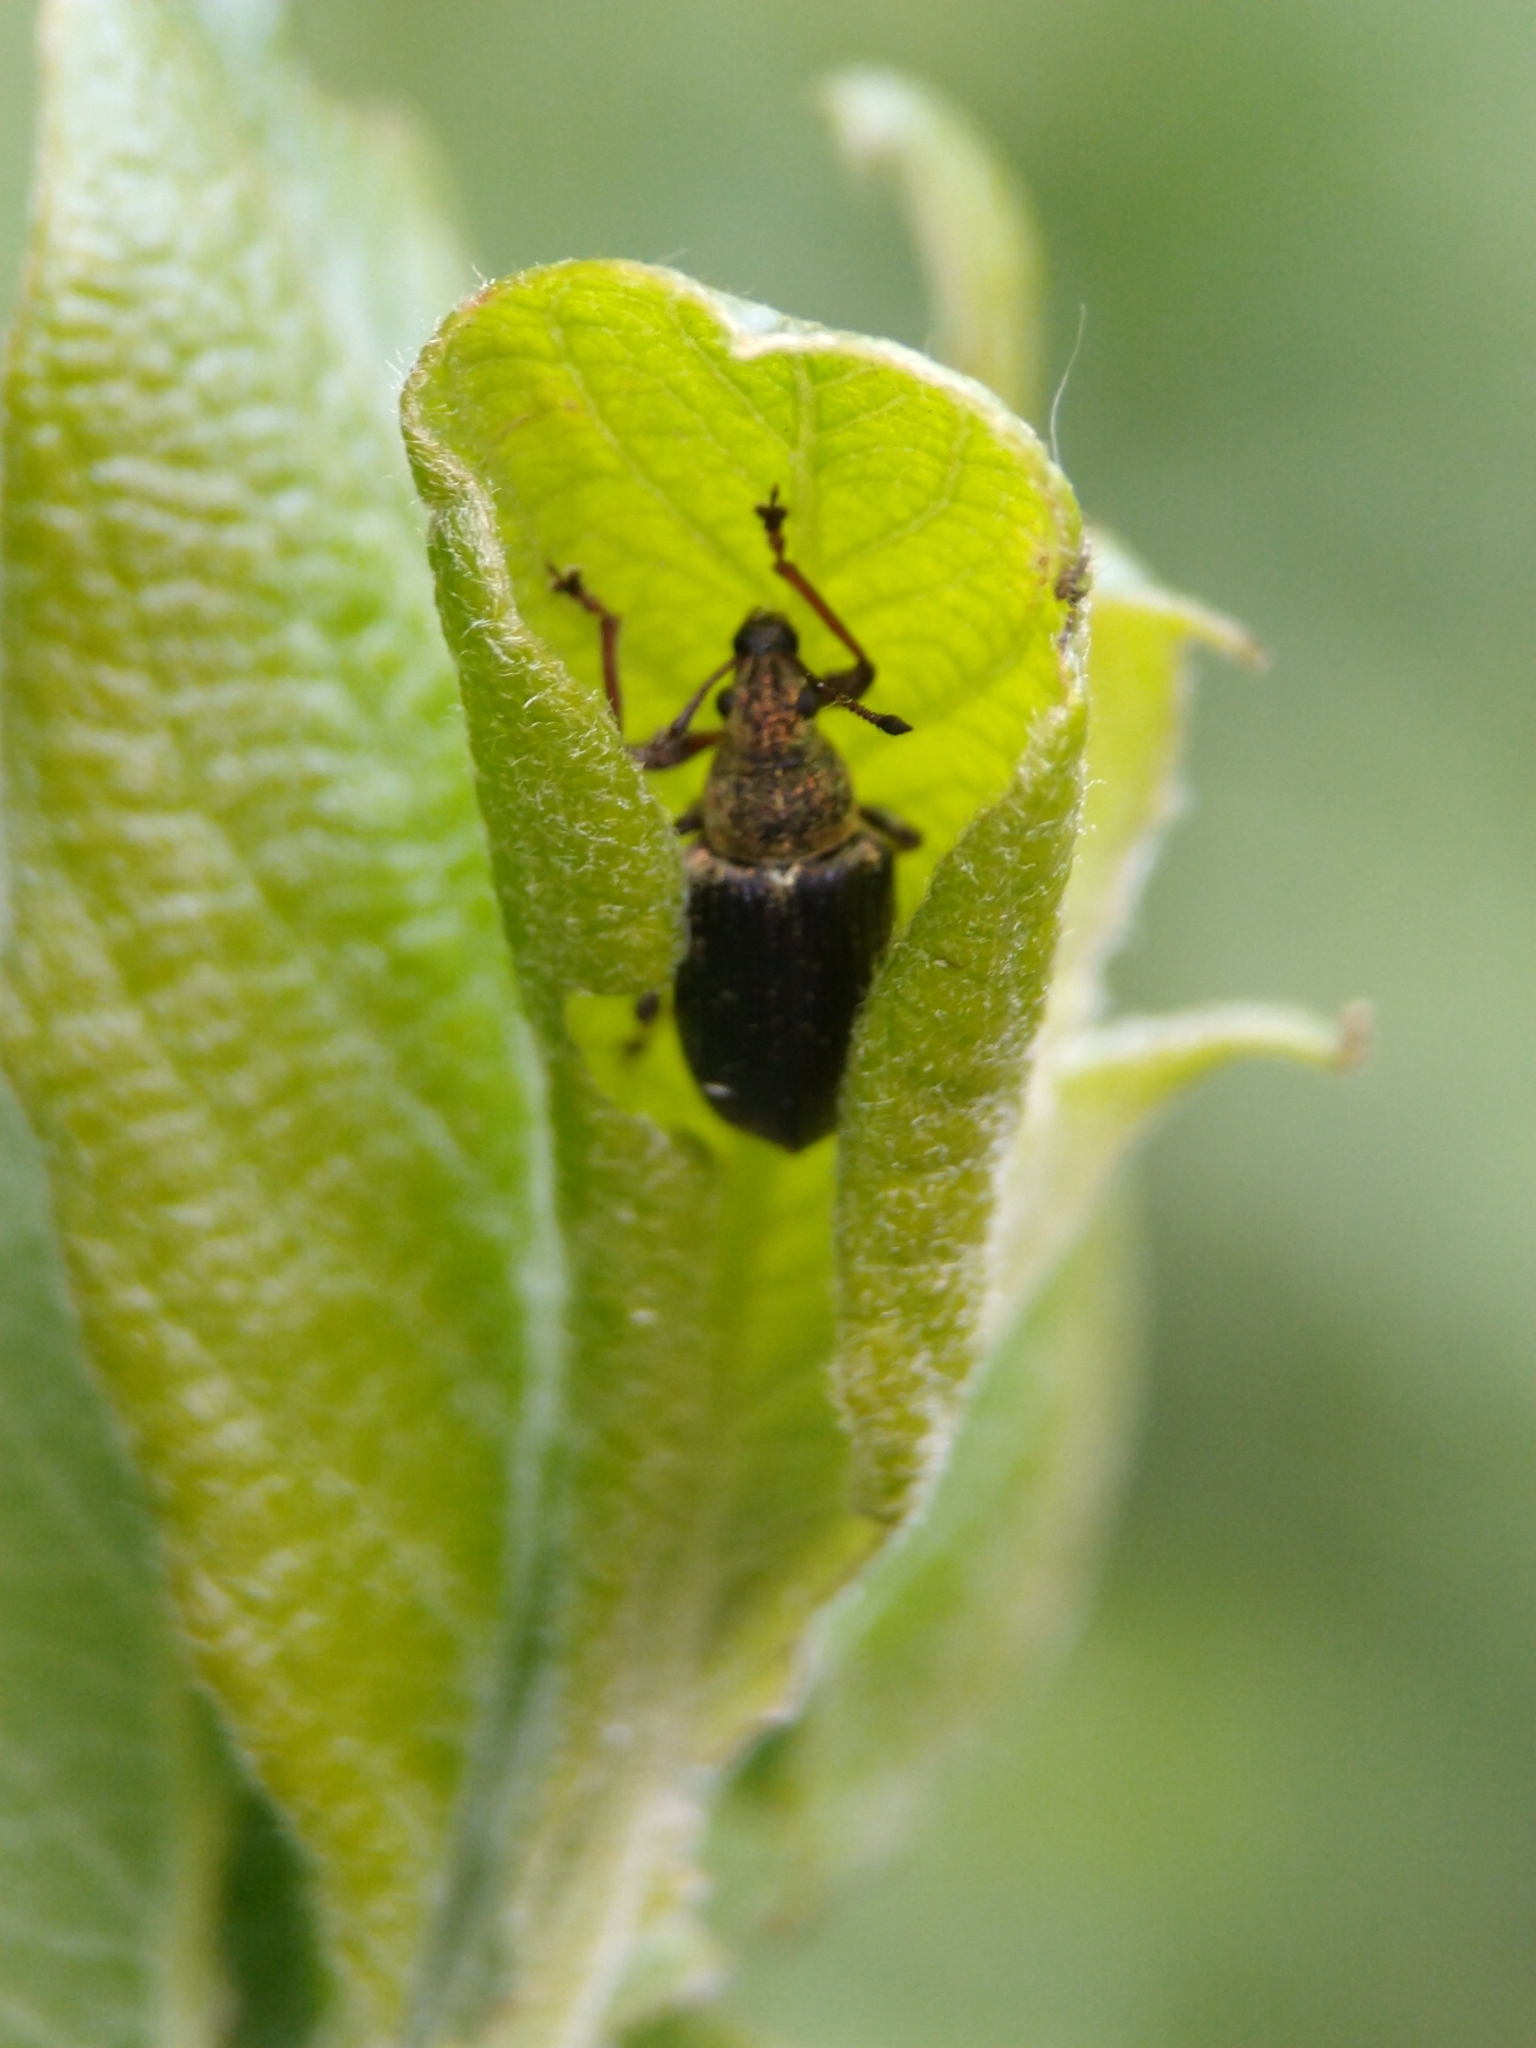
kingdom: Animalia
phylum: Arthropoda
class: Insecta
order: Coleoptera
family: Curculionidae
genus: Phyllobius
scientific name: Phyllobius pyri
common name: Common leaf weevil
